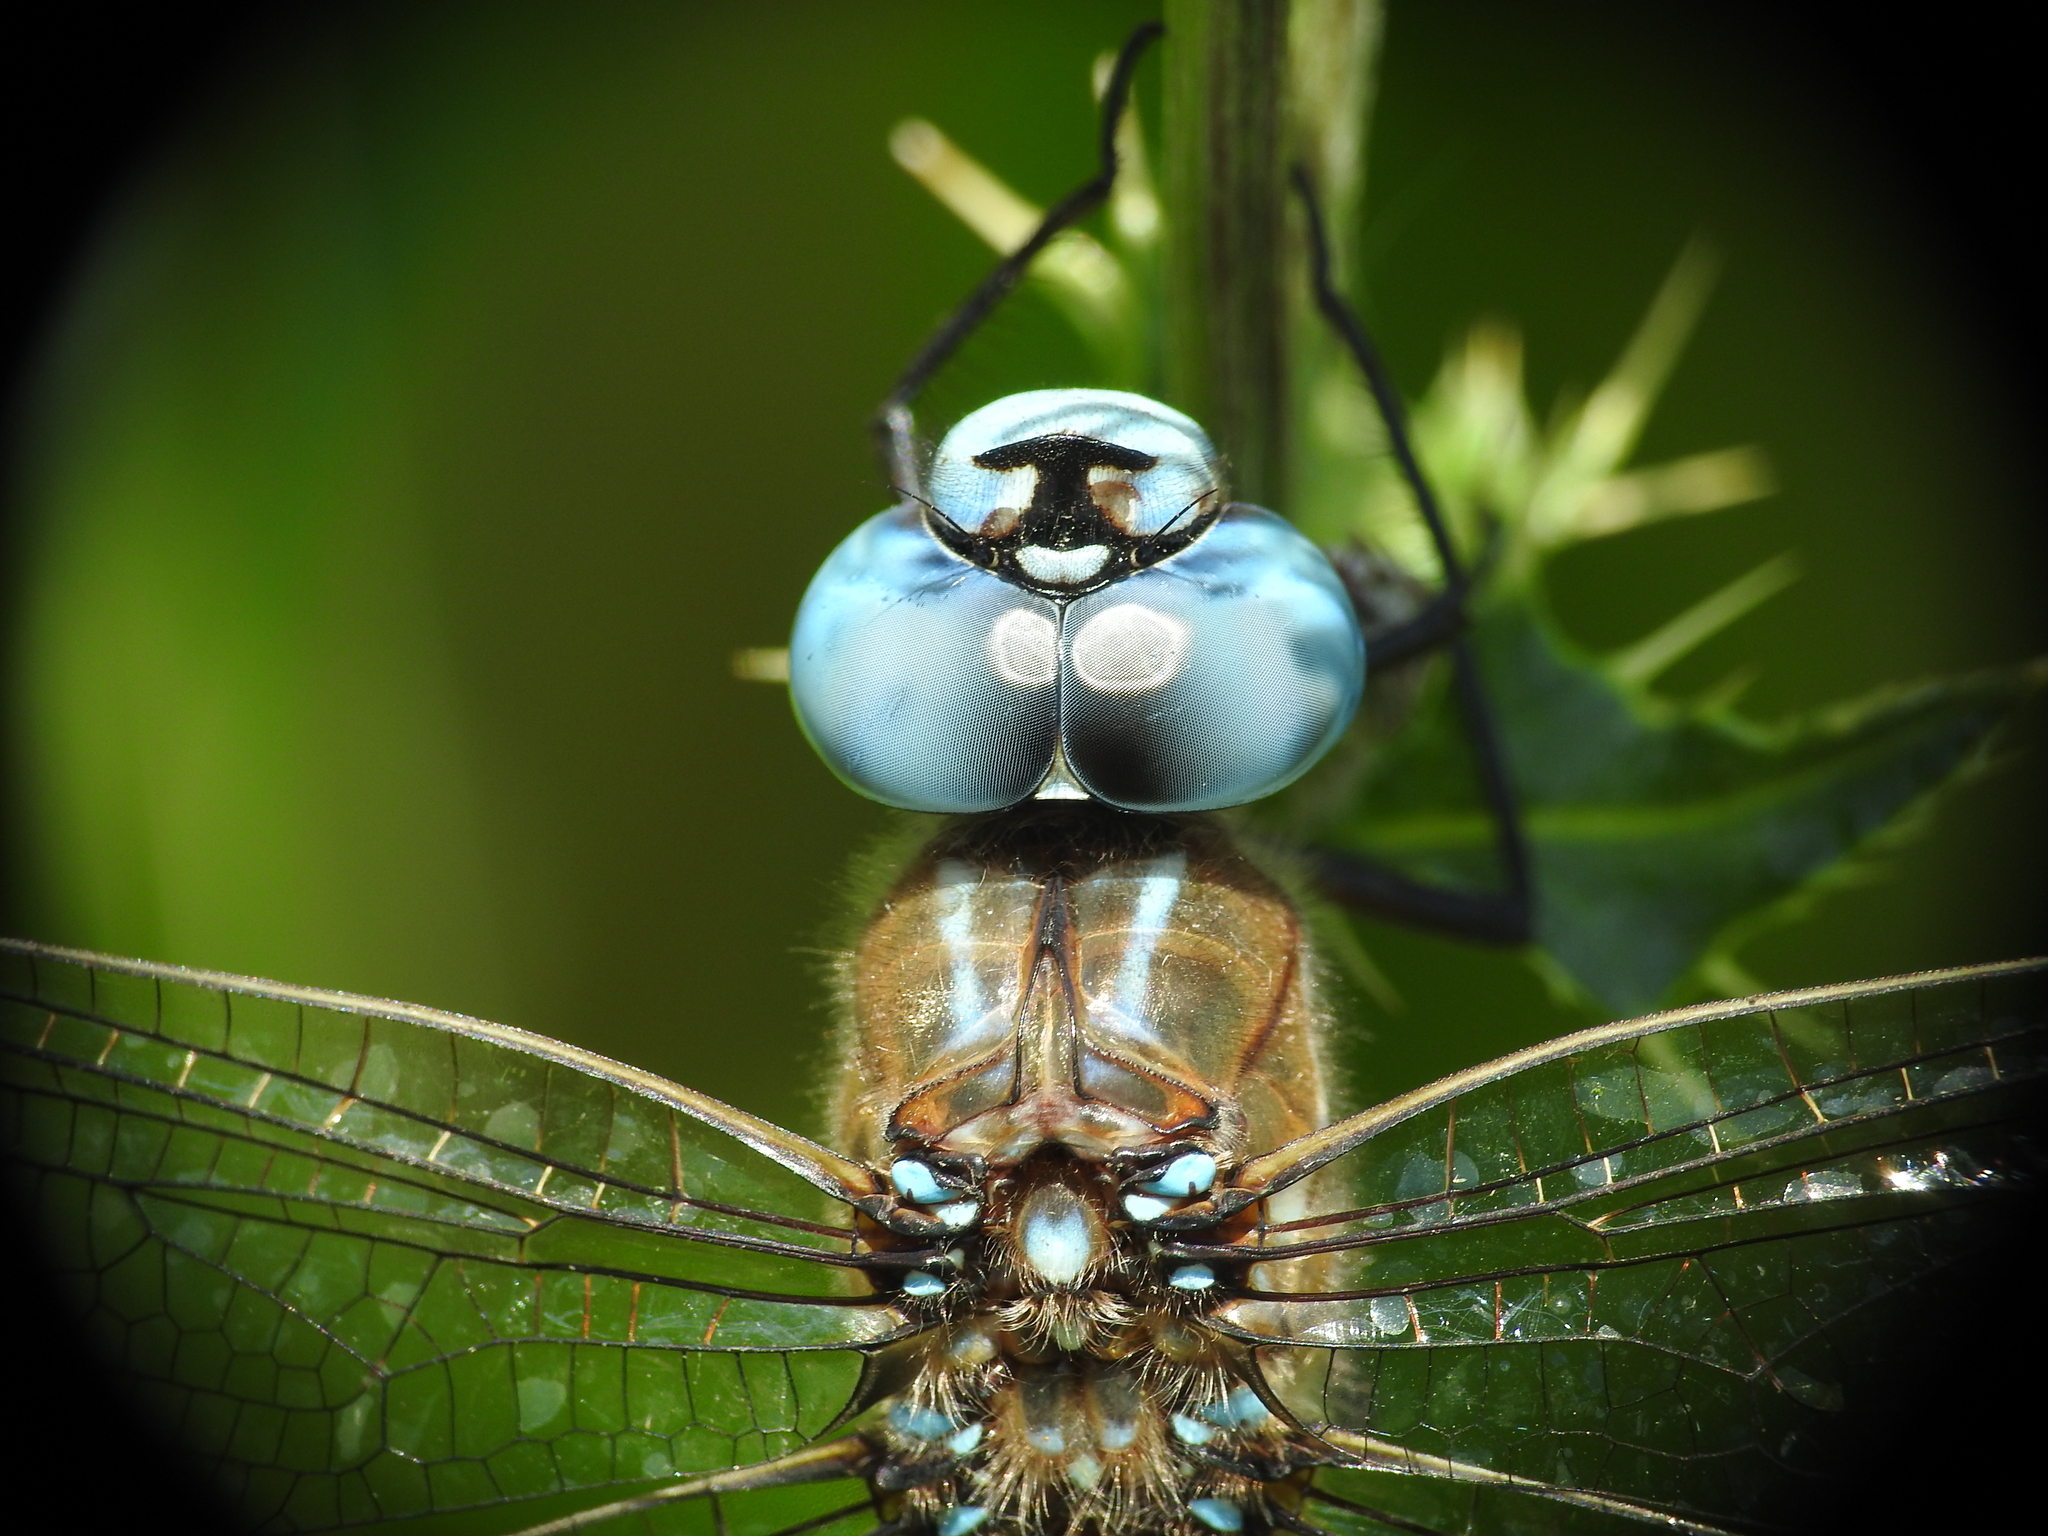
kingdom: Animalia
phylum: Arthropoda
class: Insecta
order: Odonata
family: Aeshnidae
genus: Rhionaeschna
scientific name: Rhionaeschna multicolor
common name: Blue-eyed darner
